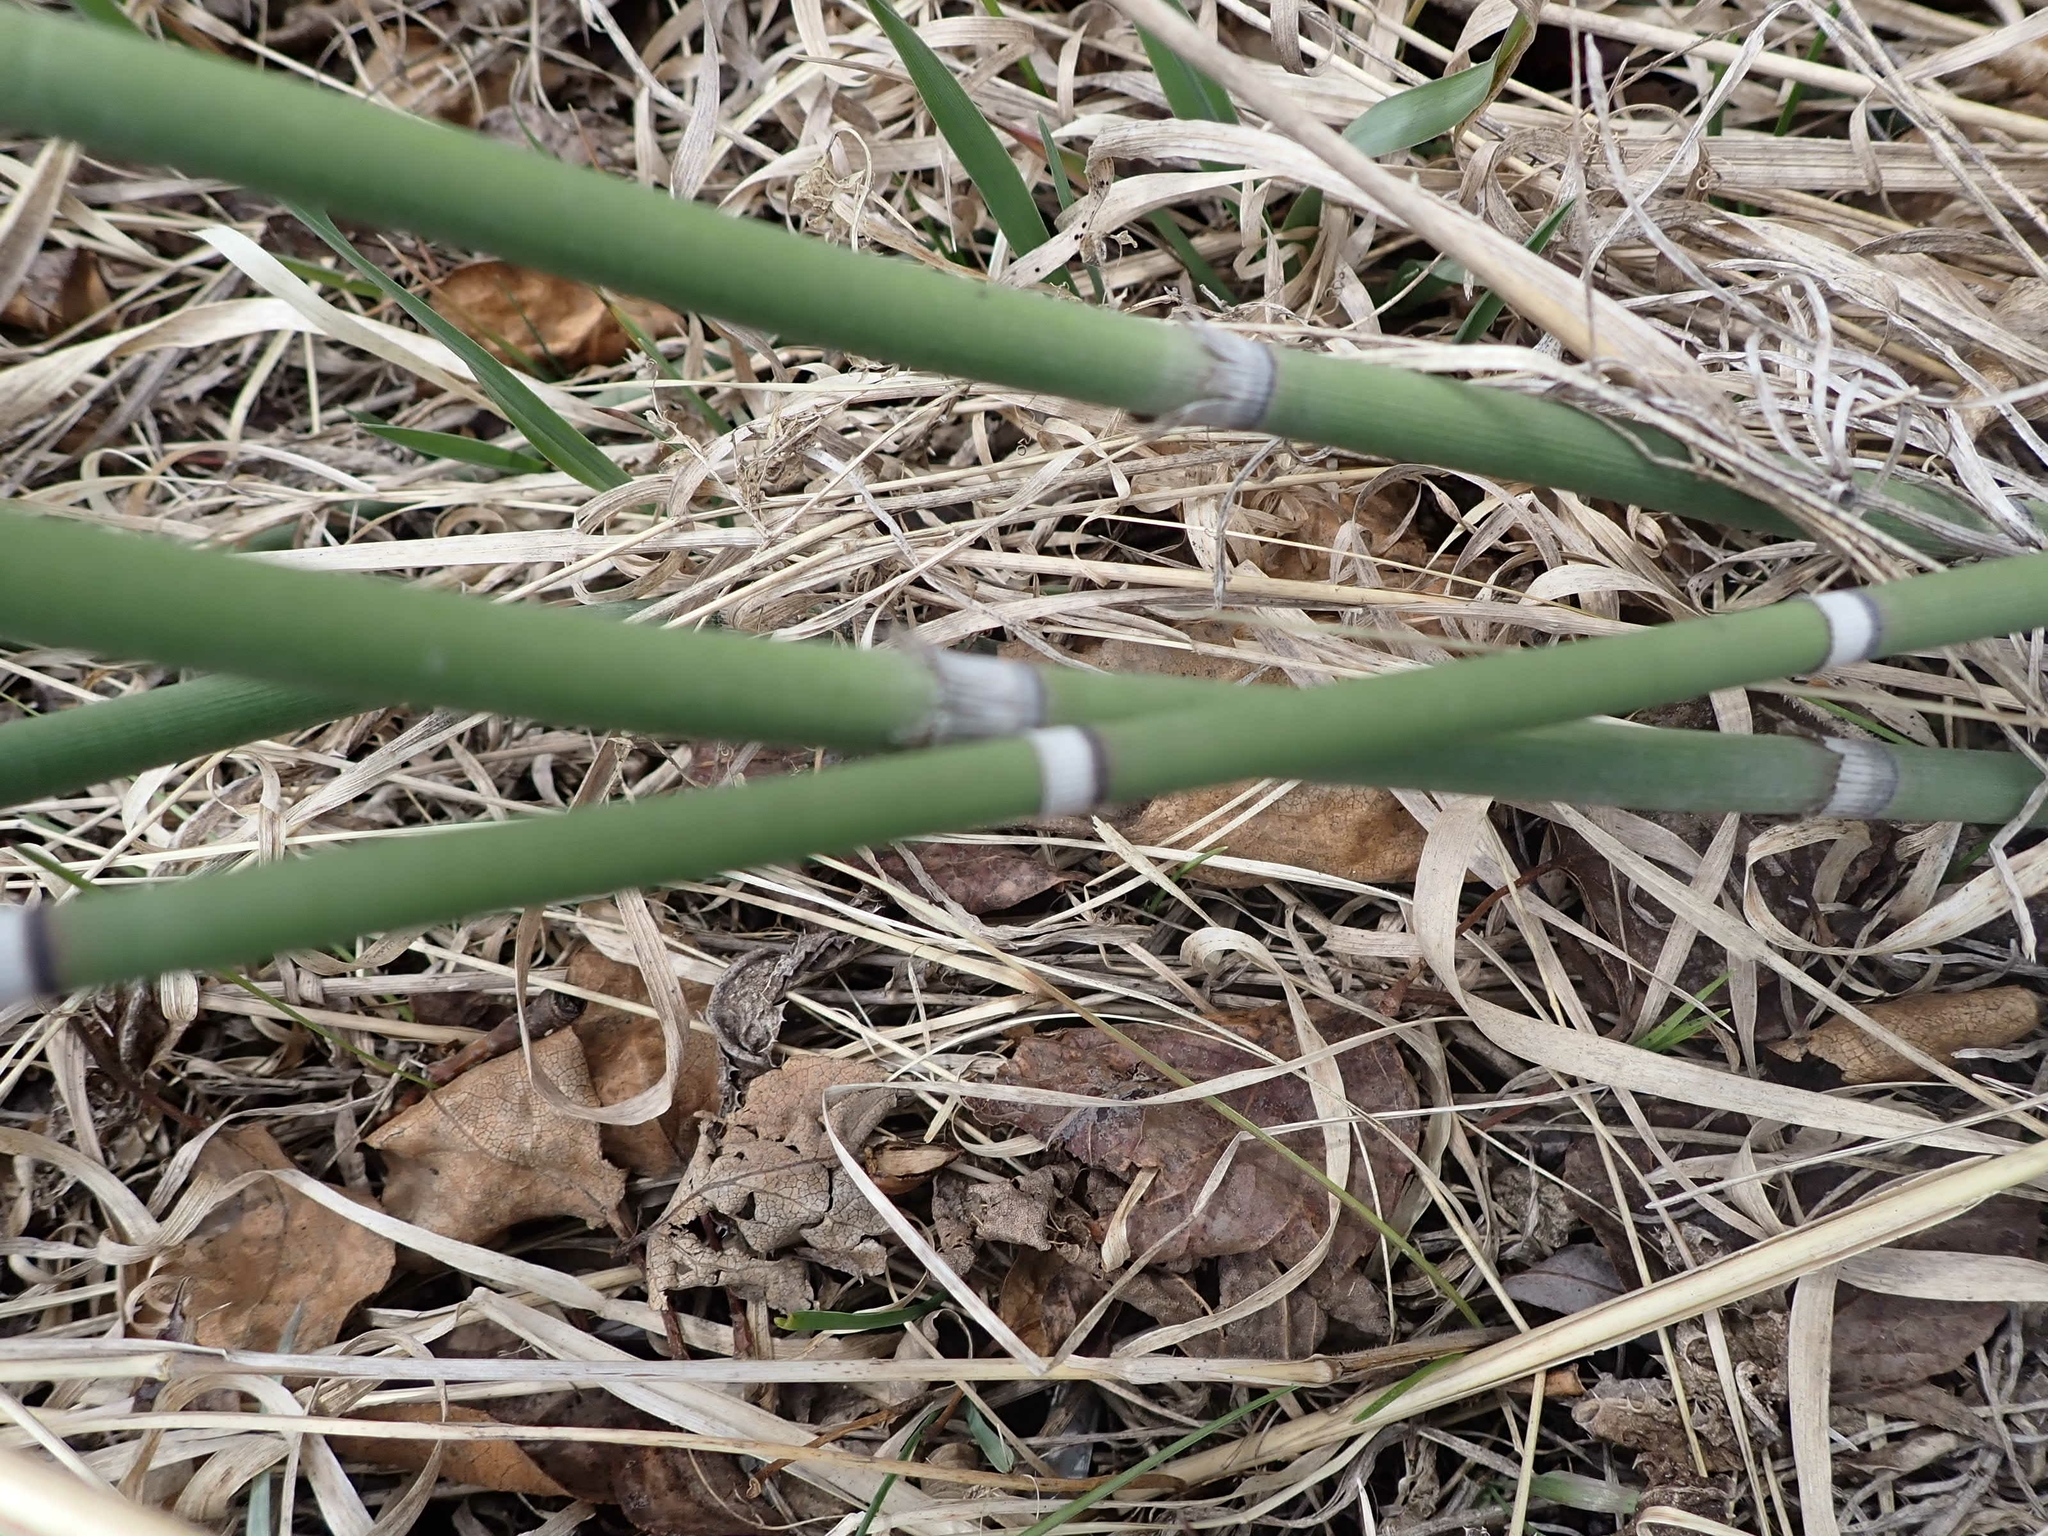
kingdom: Plantae
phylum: Tracheophyta
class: Polypodiopsida
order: Equisetales
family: Equisetaceae
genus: Equisetum
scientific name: Equisetum praealtum
